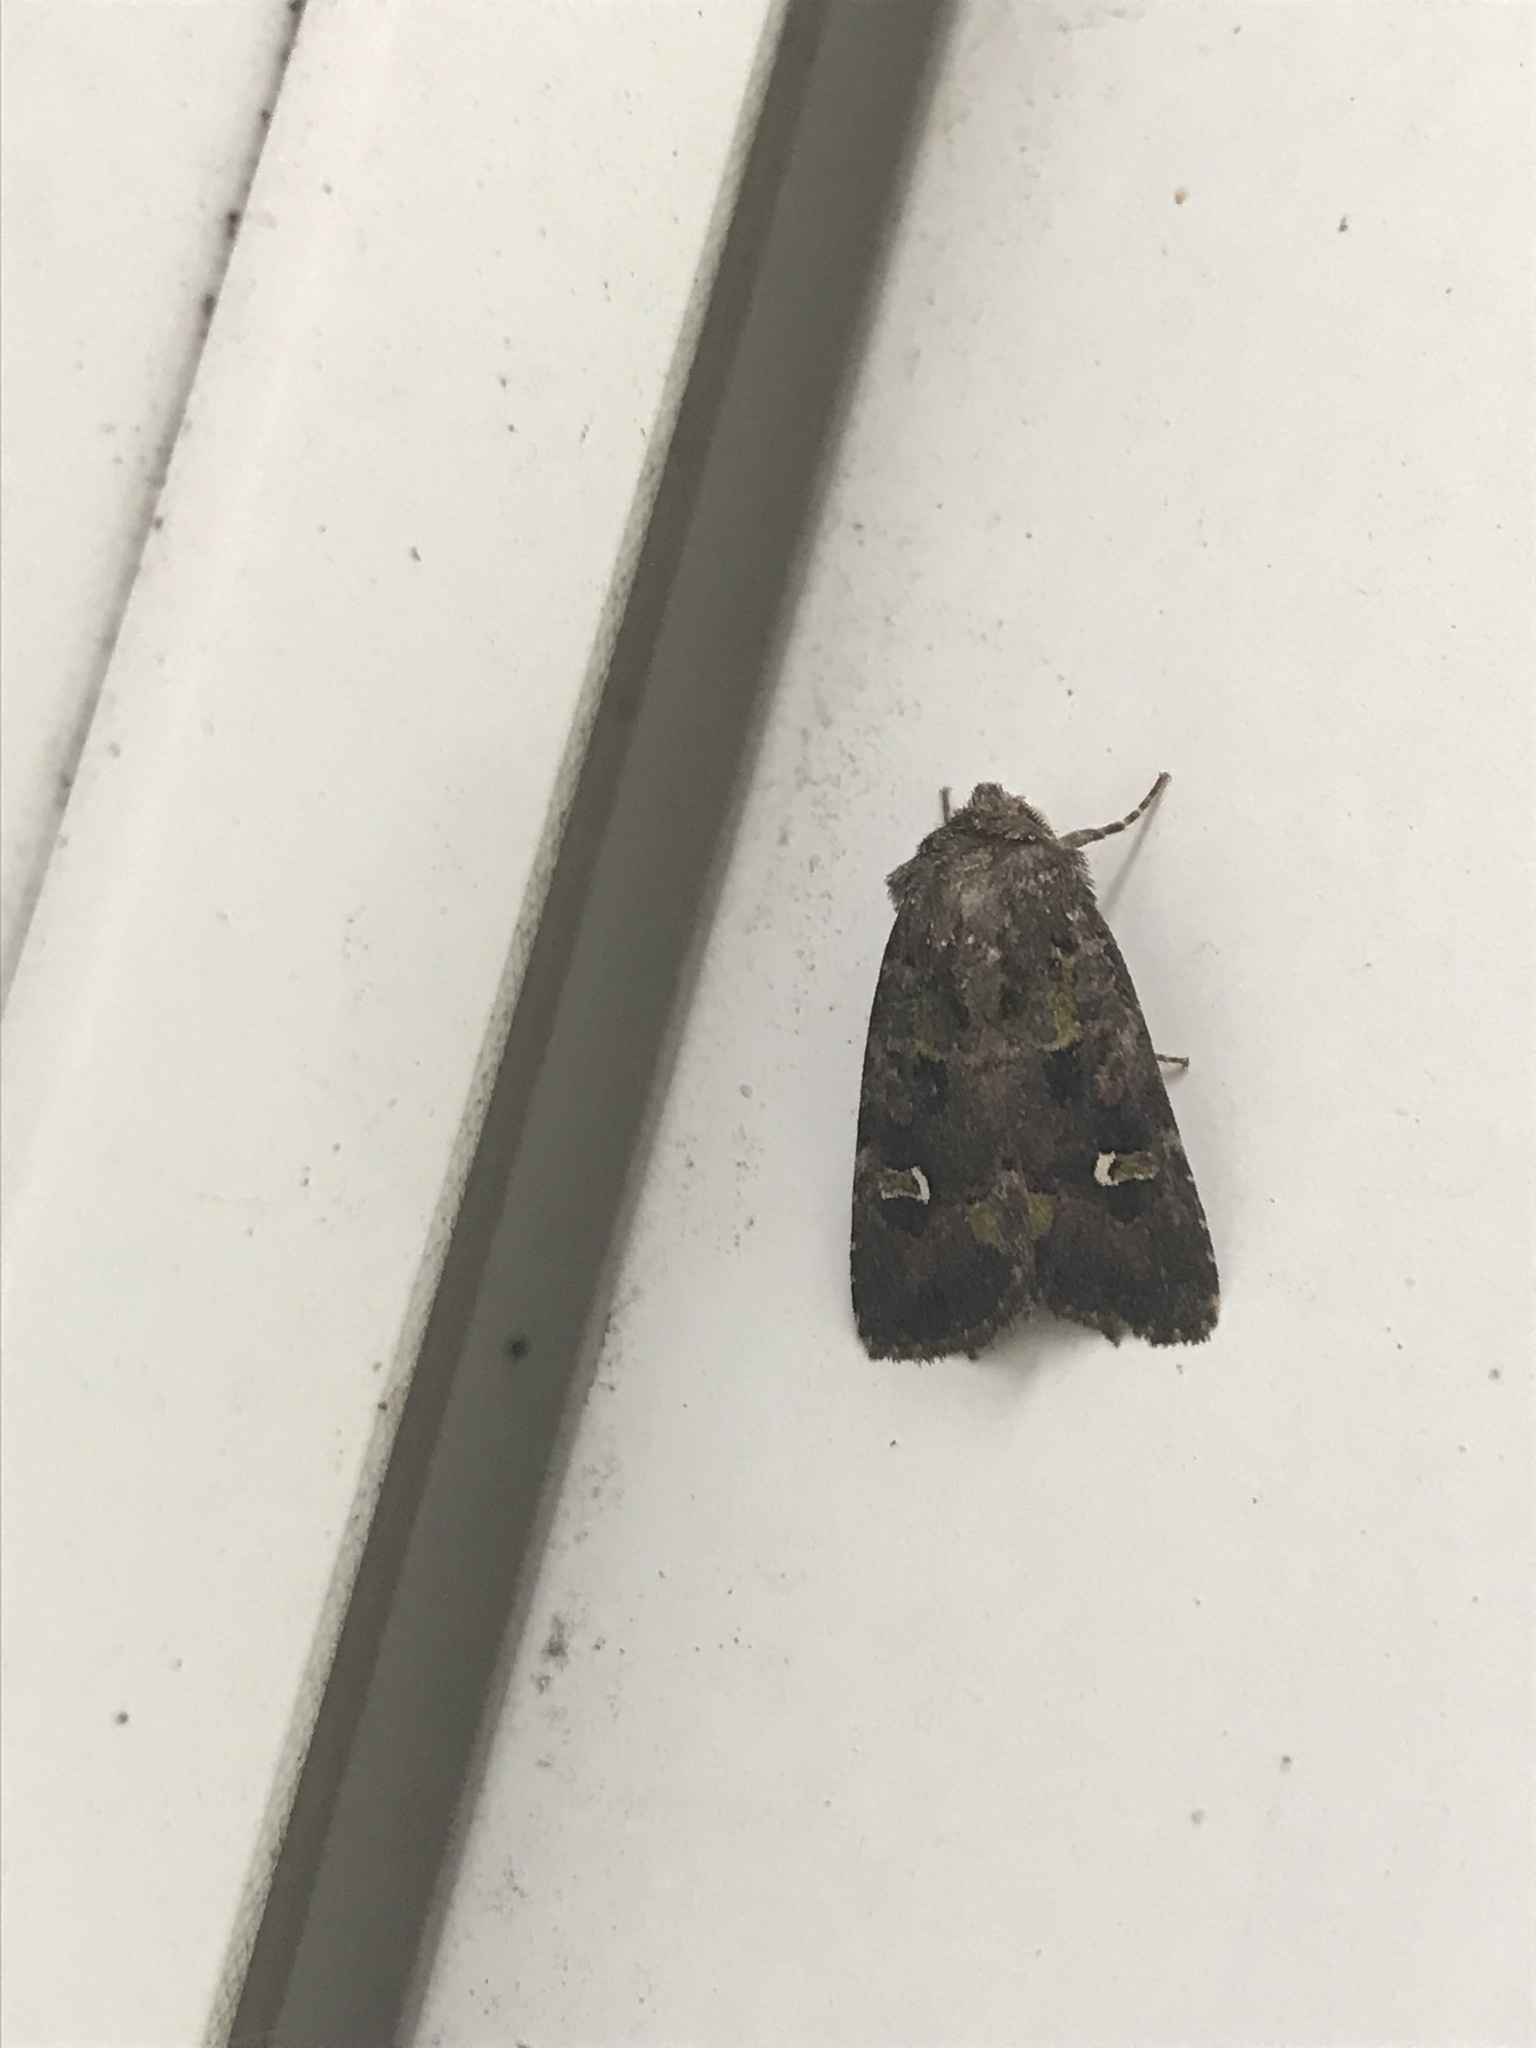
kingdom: Animalia
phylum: Arthropoda
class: Insecta
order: Lepidoptera
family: Noctuidae
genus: Lacinipolia
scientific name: Lacinipolia renigera
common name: Kidney-spotted minor
